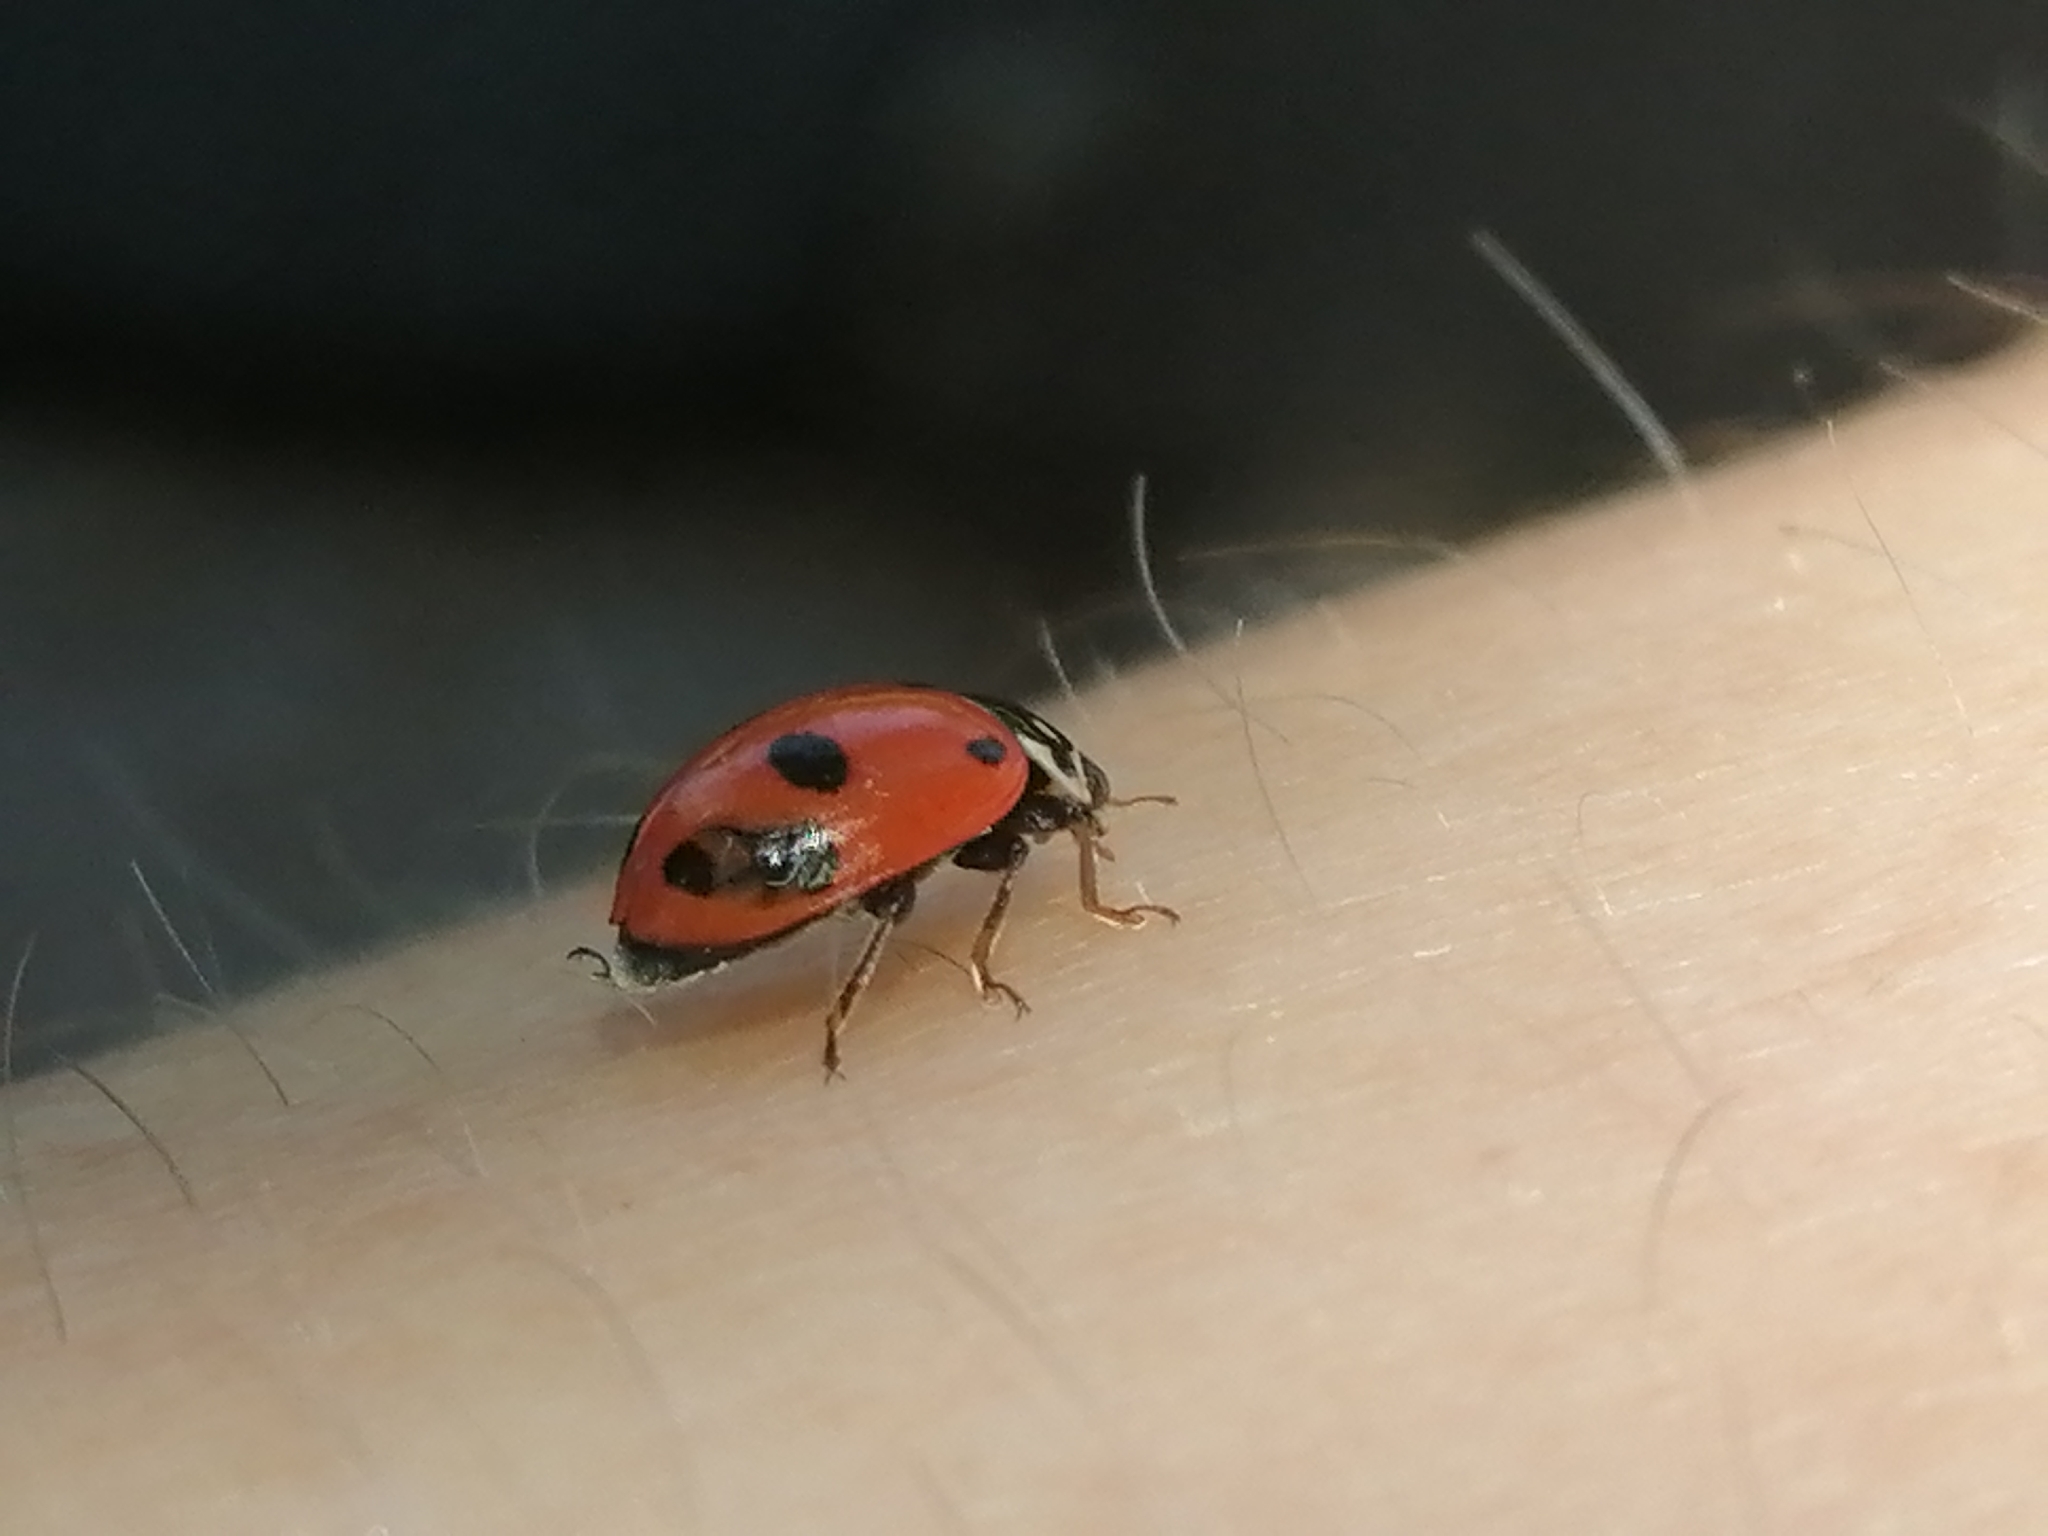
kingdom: Animalia
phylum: Arthropoda
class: Insecta
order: Coleoptera
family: Coccinellidae
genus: Hippodamia
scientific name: Hippodamia variegata
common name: Ladybird beetle
